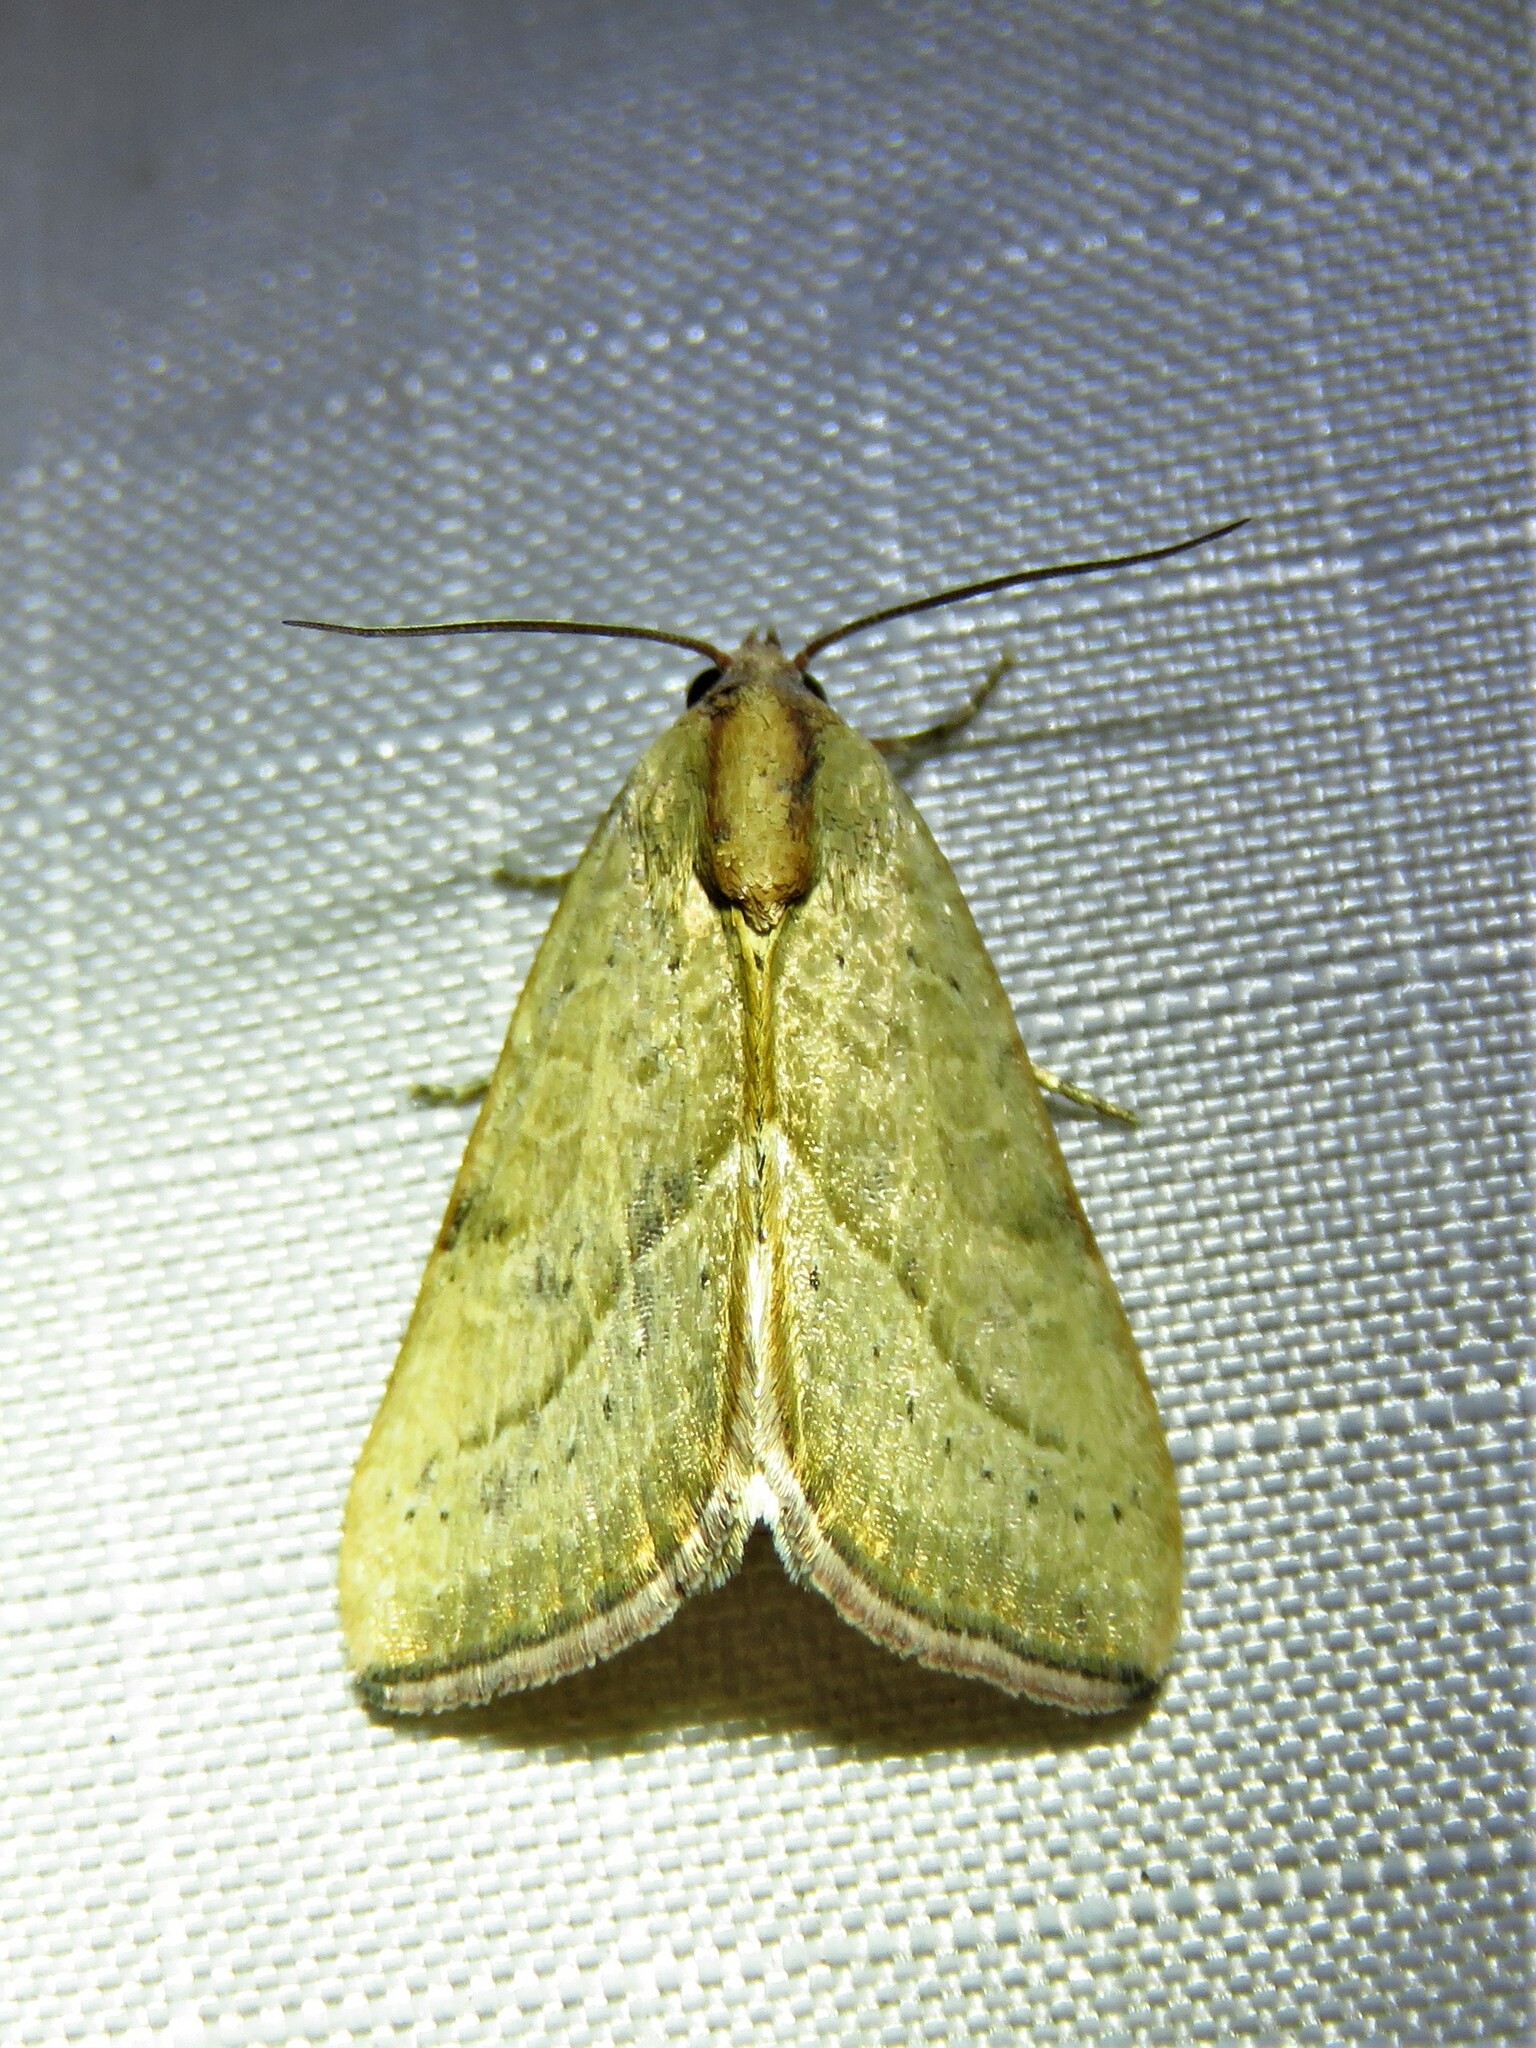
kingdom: Animalia
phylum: Arthropoda
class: Insecta
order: Lepidoptera
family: Noctuidae
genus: Galgula
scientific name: Galgula partita
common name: Wedgeling
